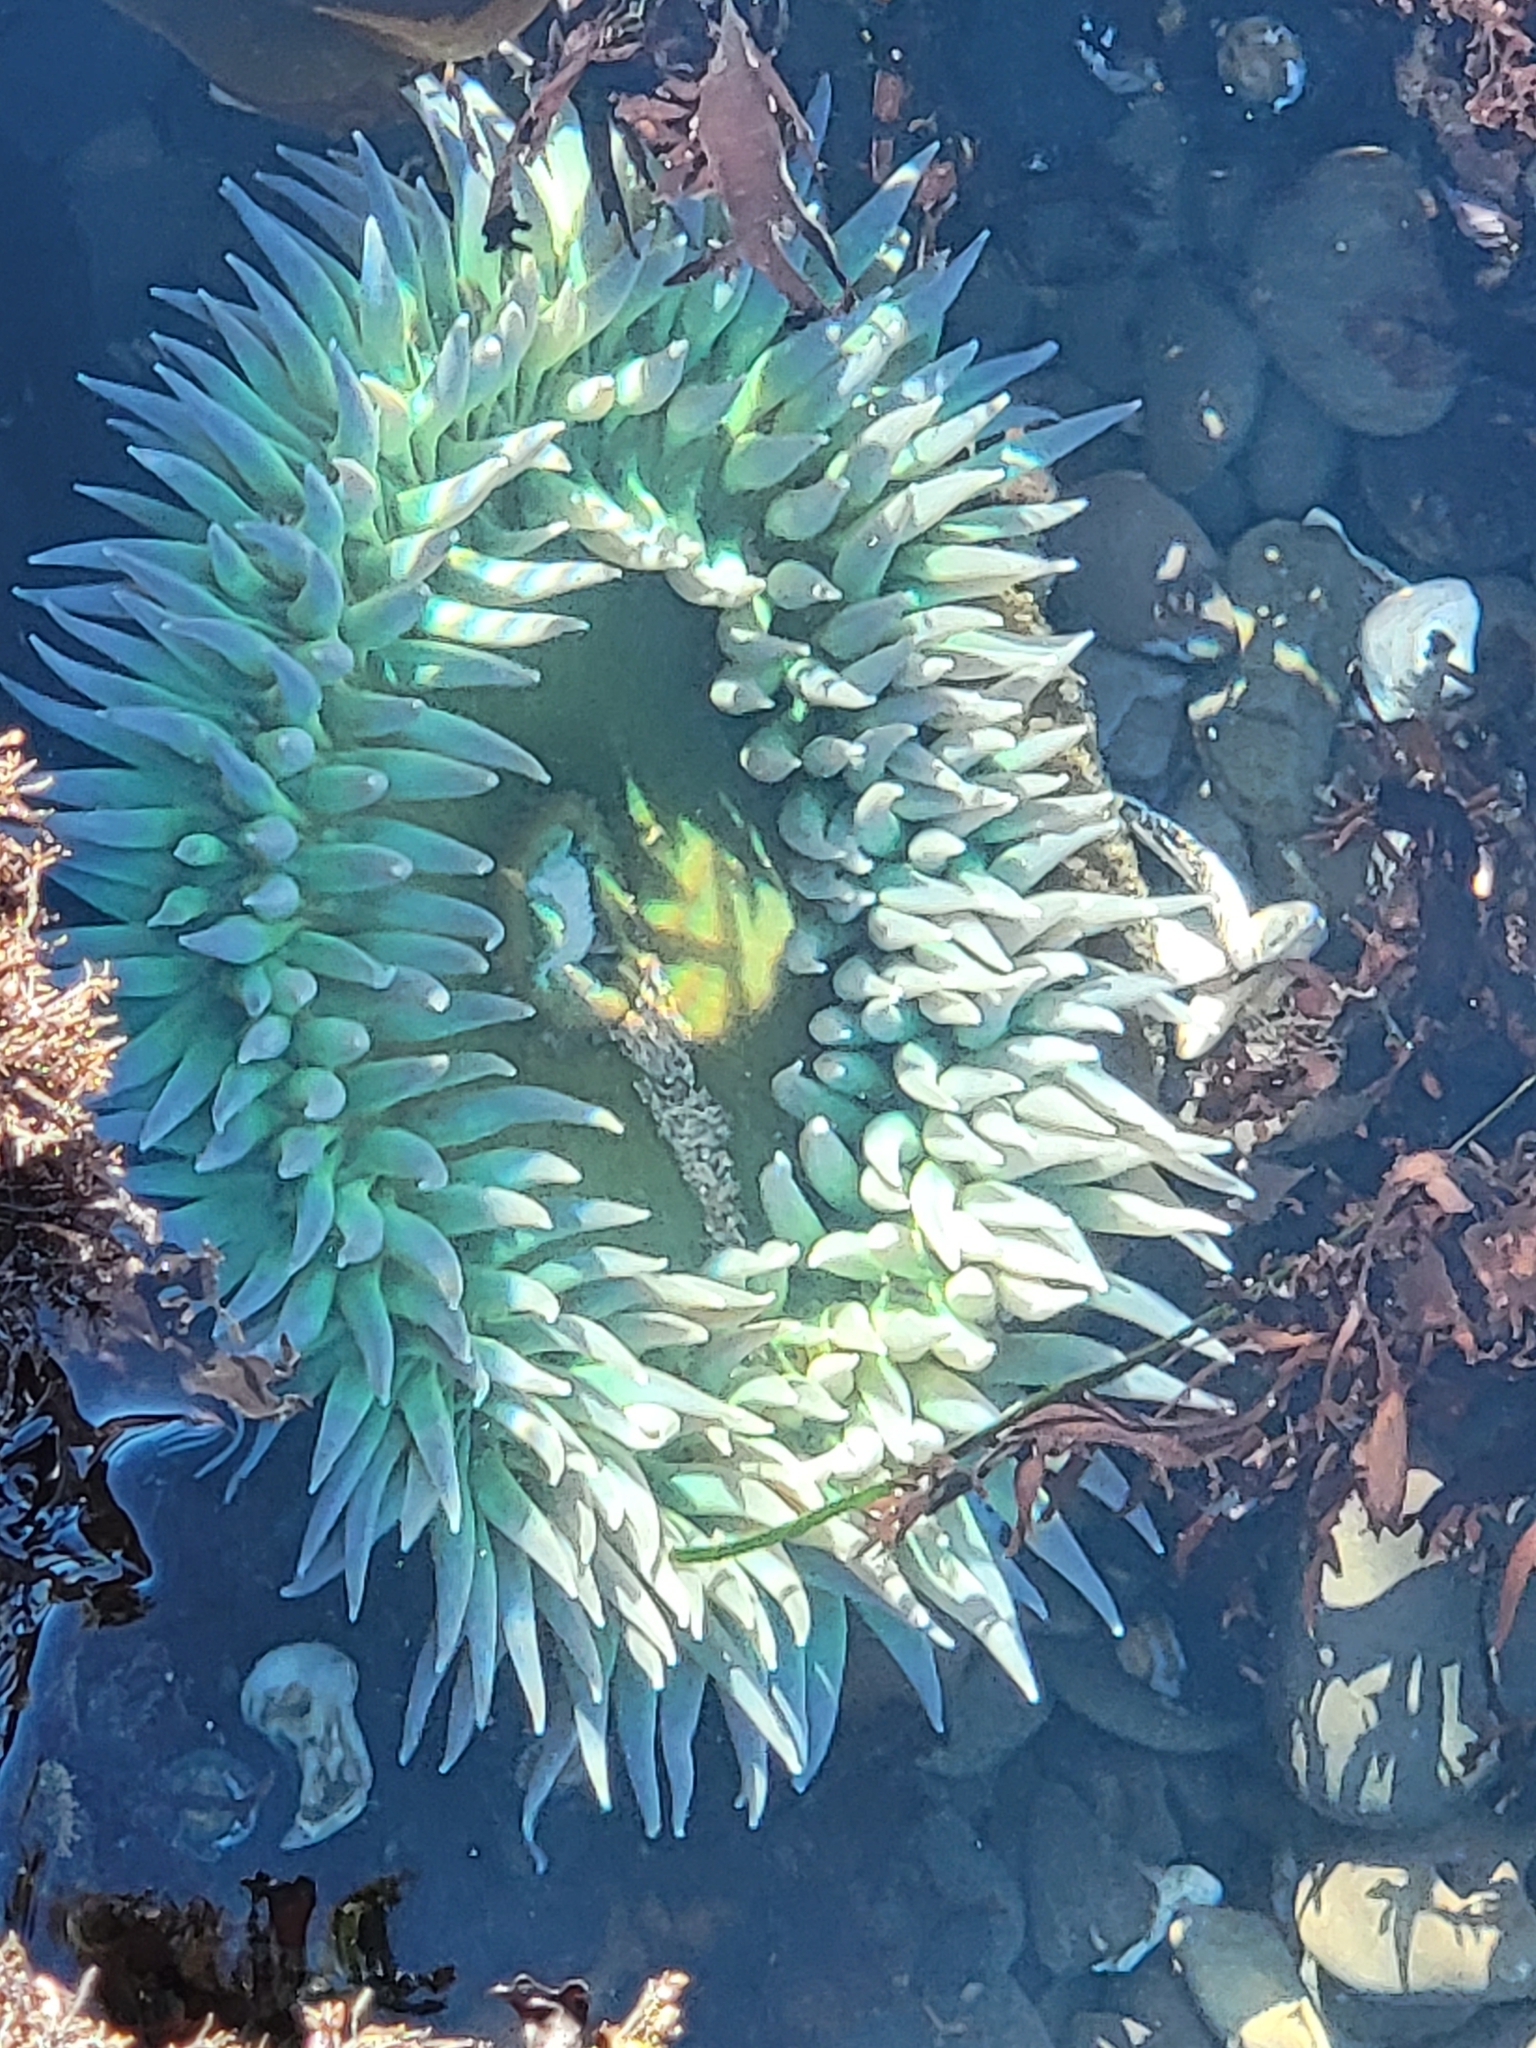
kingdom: Animalia
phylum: Cnidaria
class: Anthozoa
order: Actiniaria
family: Actiniidae
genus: Anthopleura
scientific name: Anthopleura xanthogrammica
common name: Giant green anemone
